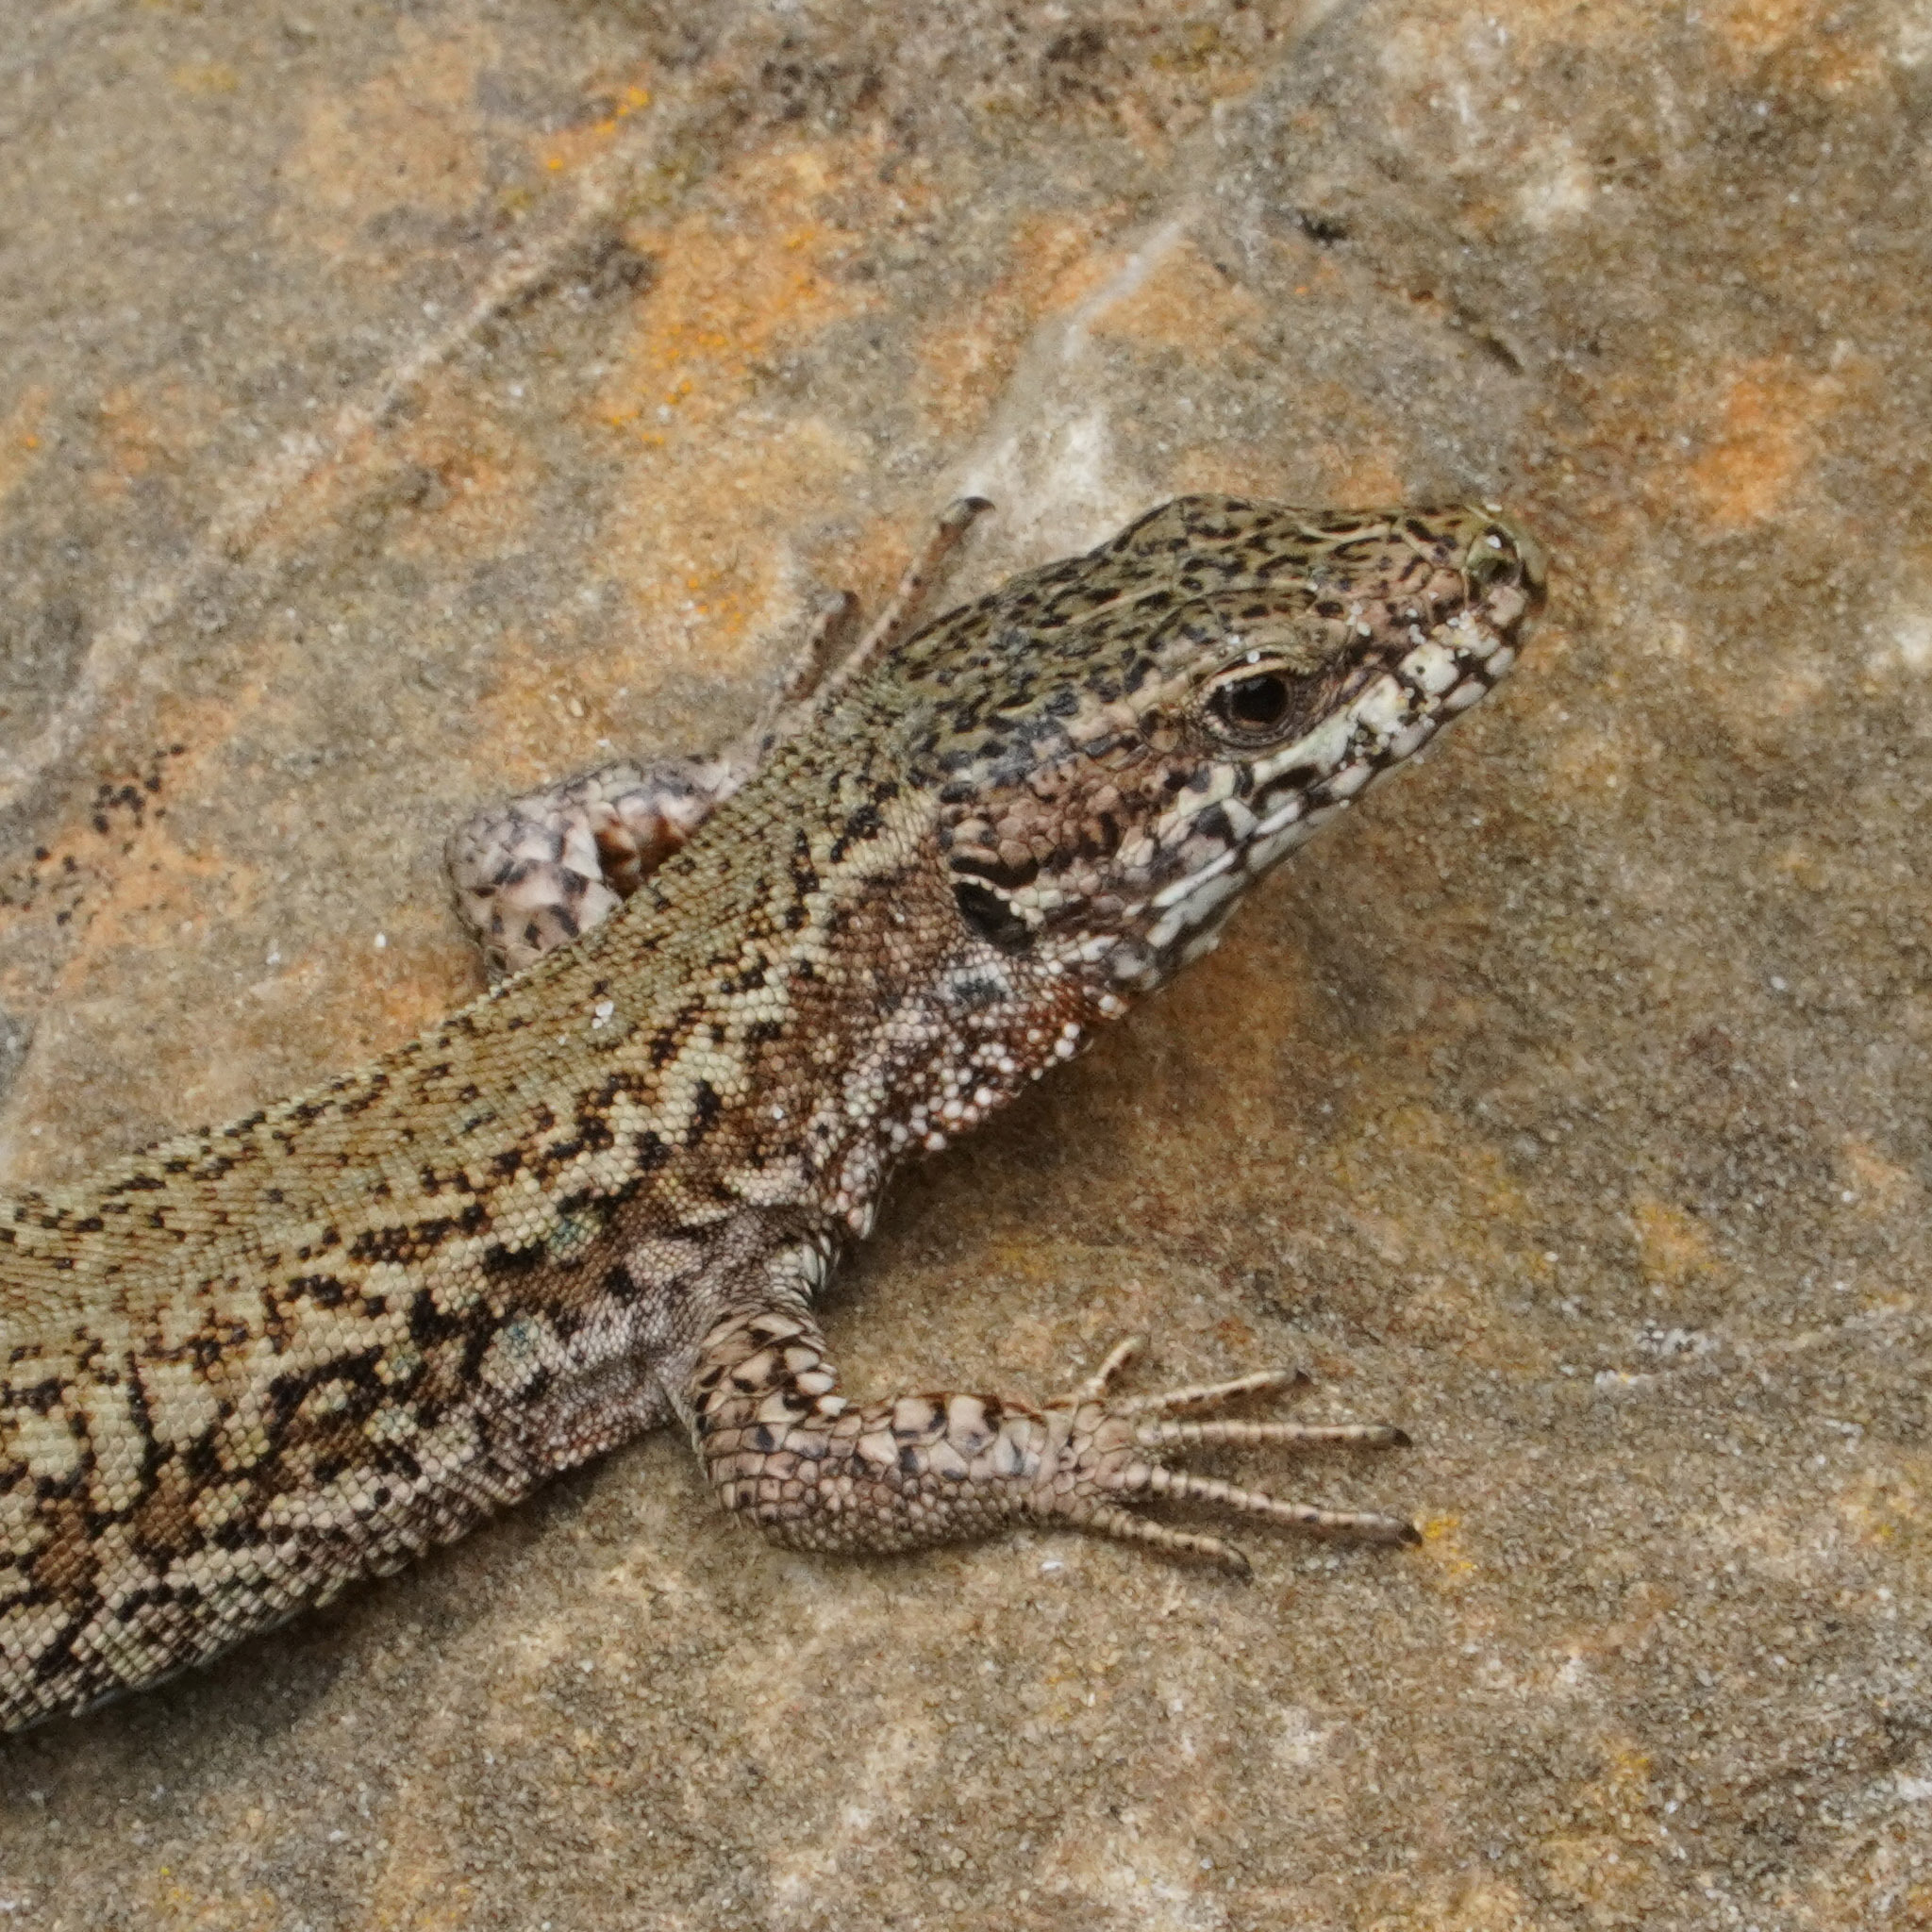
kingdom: Animalia
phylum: Chordata
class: Squamata
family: Lacertidae
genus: Podarcis
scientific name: Podarcis muralis
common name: Common wall lizard
